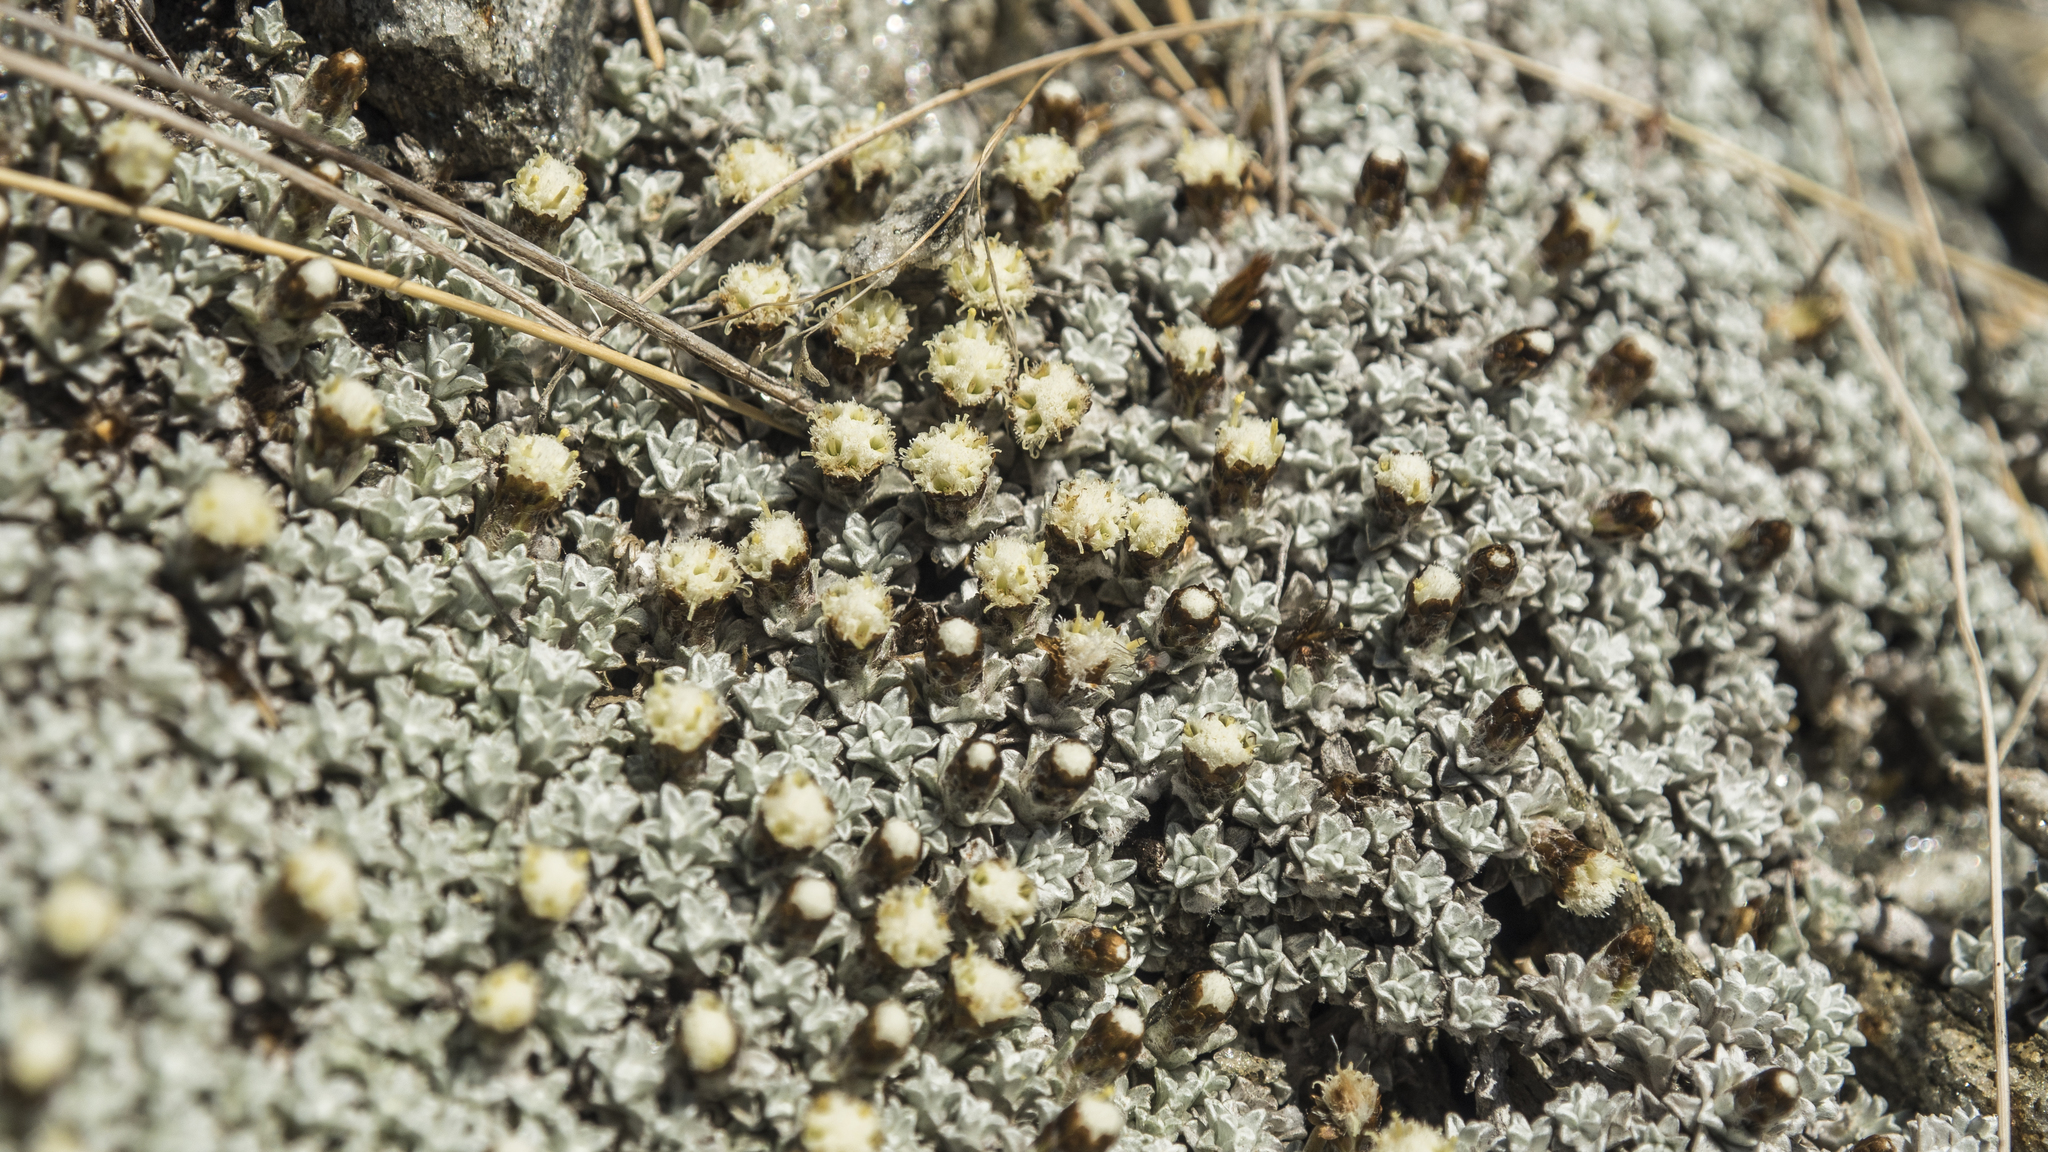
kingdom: Plantae
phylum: Tracheophyta
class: Magnoliopsida
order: Asterales
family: Asteraceae
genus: Raoulia
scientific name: Raoulia apicinigra
